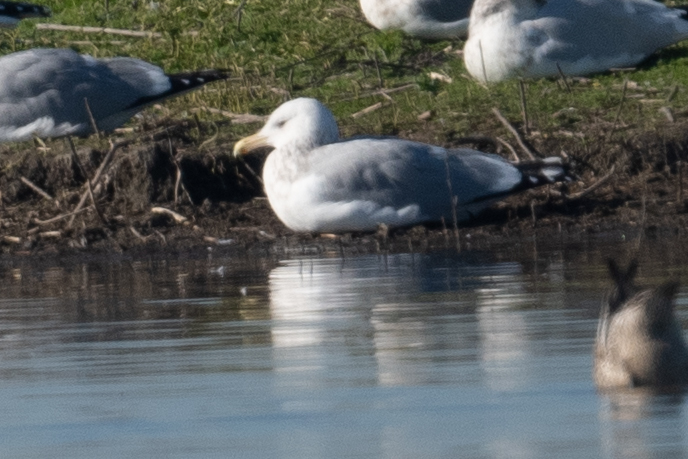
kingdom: Animalia
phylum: Chordata
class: Aves
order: Charadriiformes
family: Laridae
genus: Larus
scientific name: Larus argentatus
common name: Herring gull
